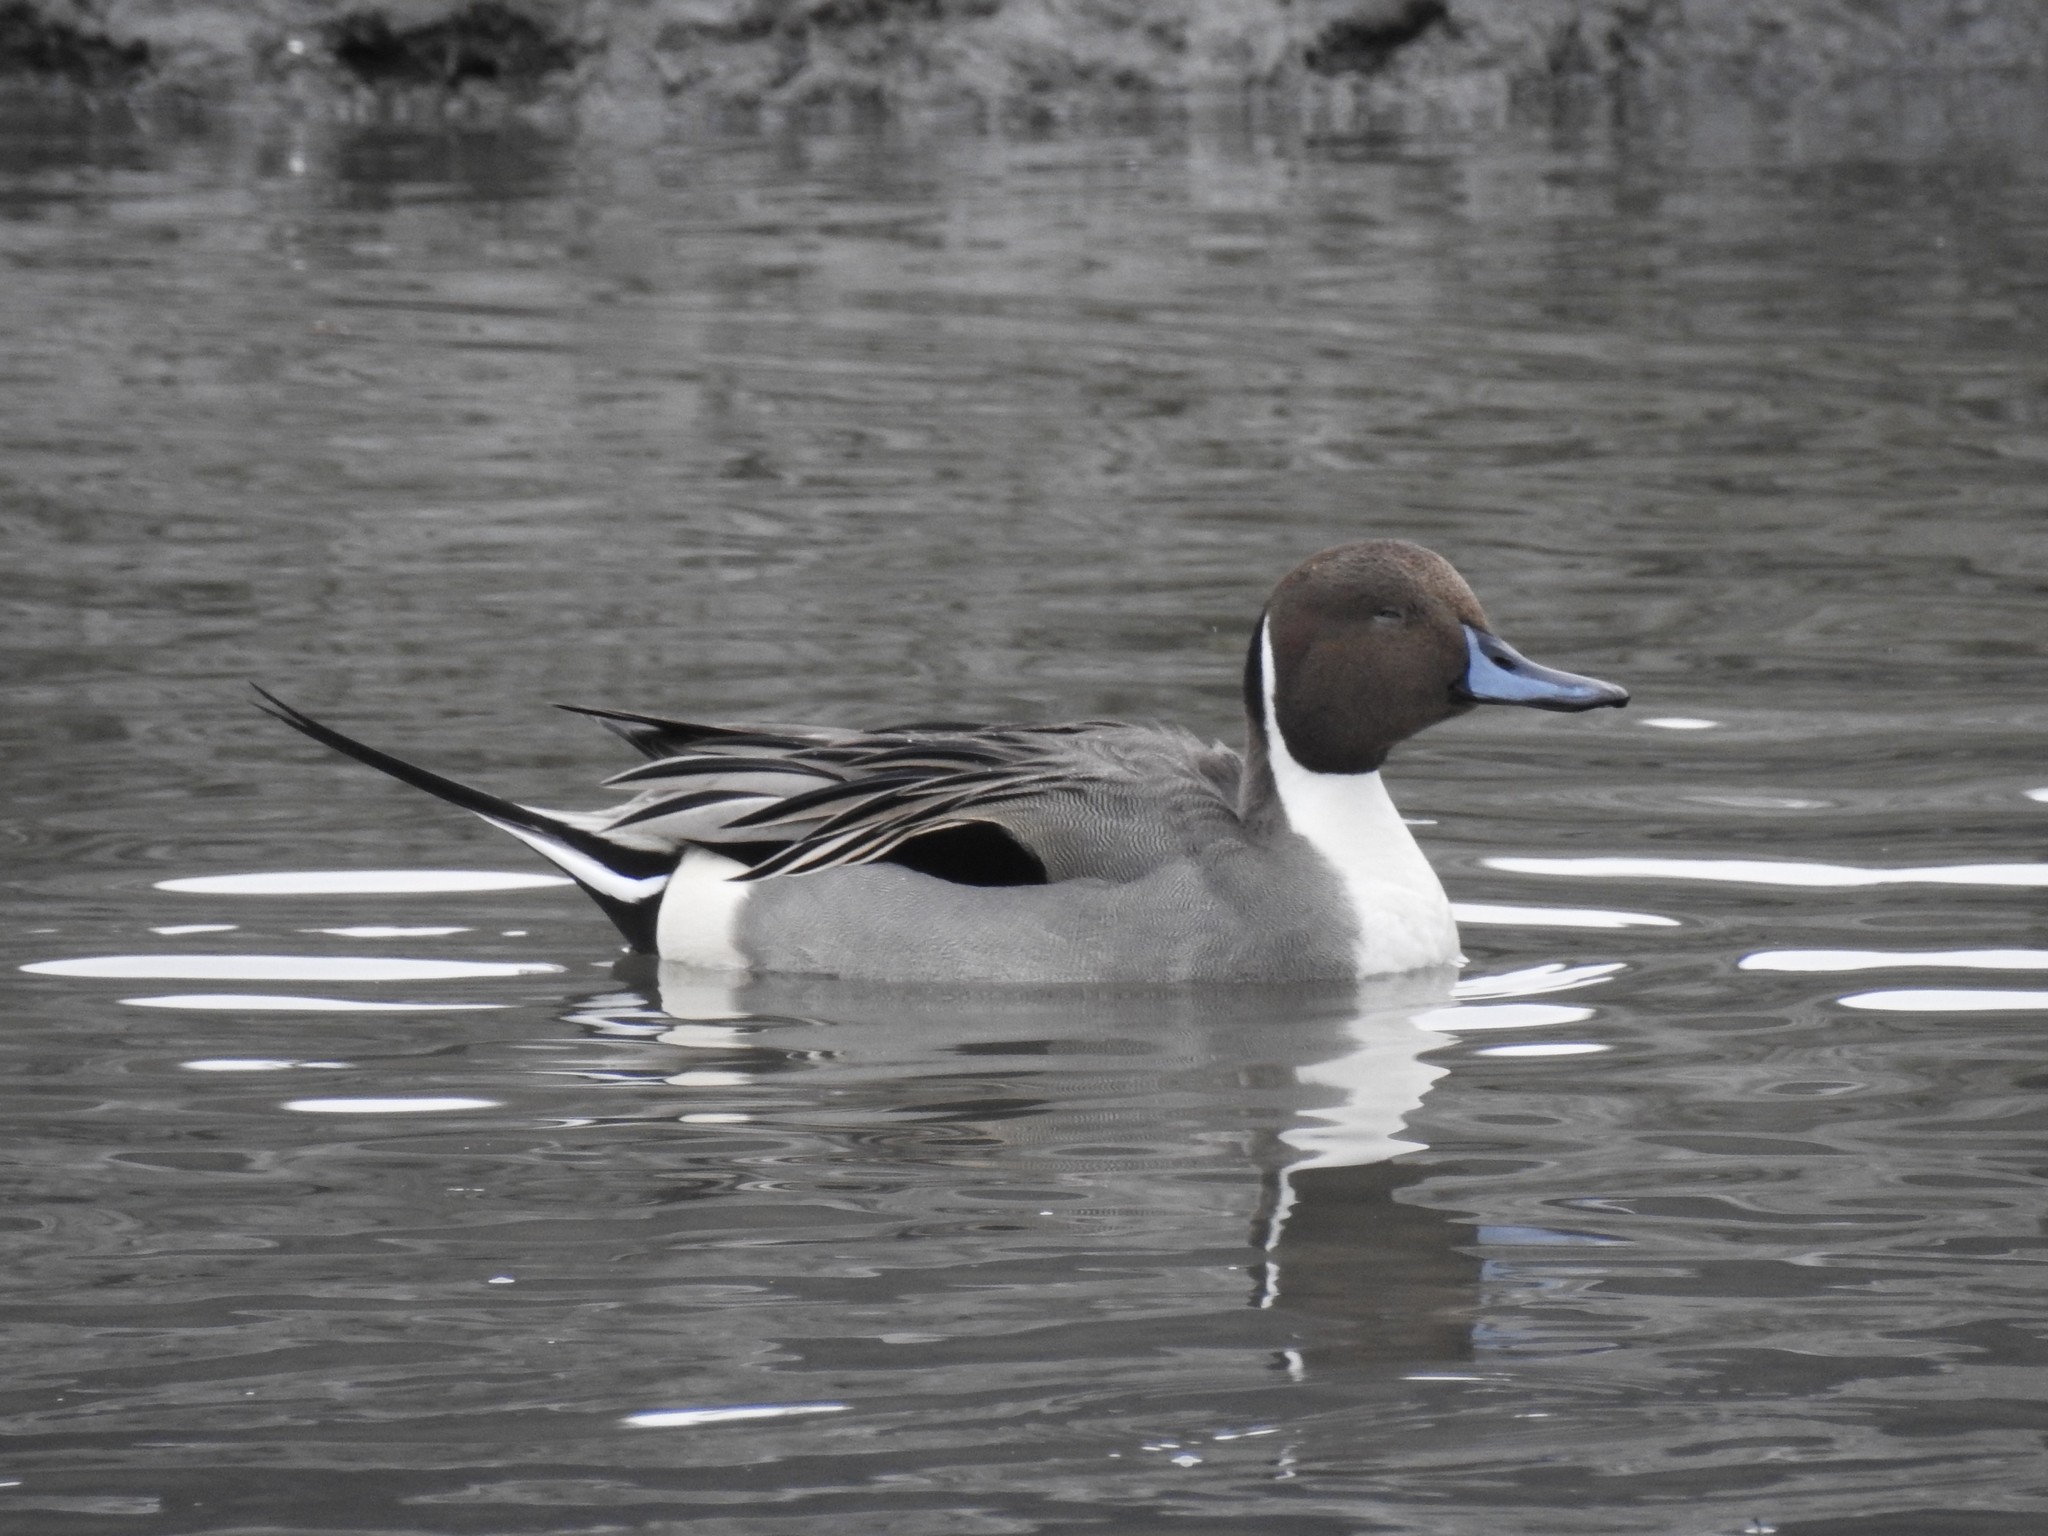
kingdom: Animalia
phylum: Chordata
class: Aves
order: Anseriformes
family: Anatidae
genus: Anas
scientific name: Anas acuta
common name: Northern pintail
